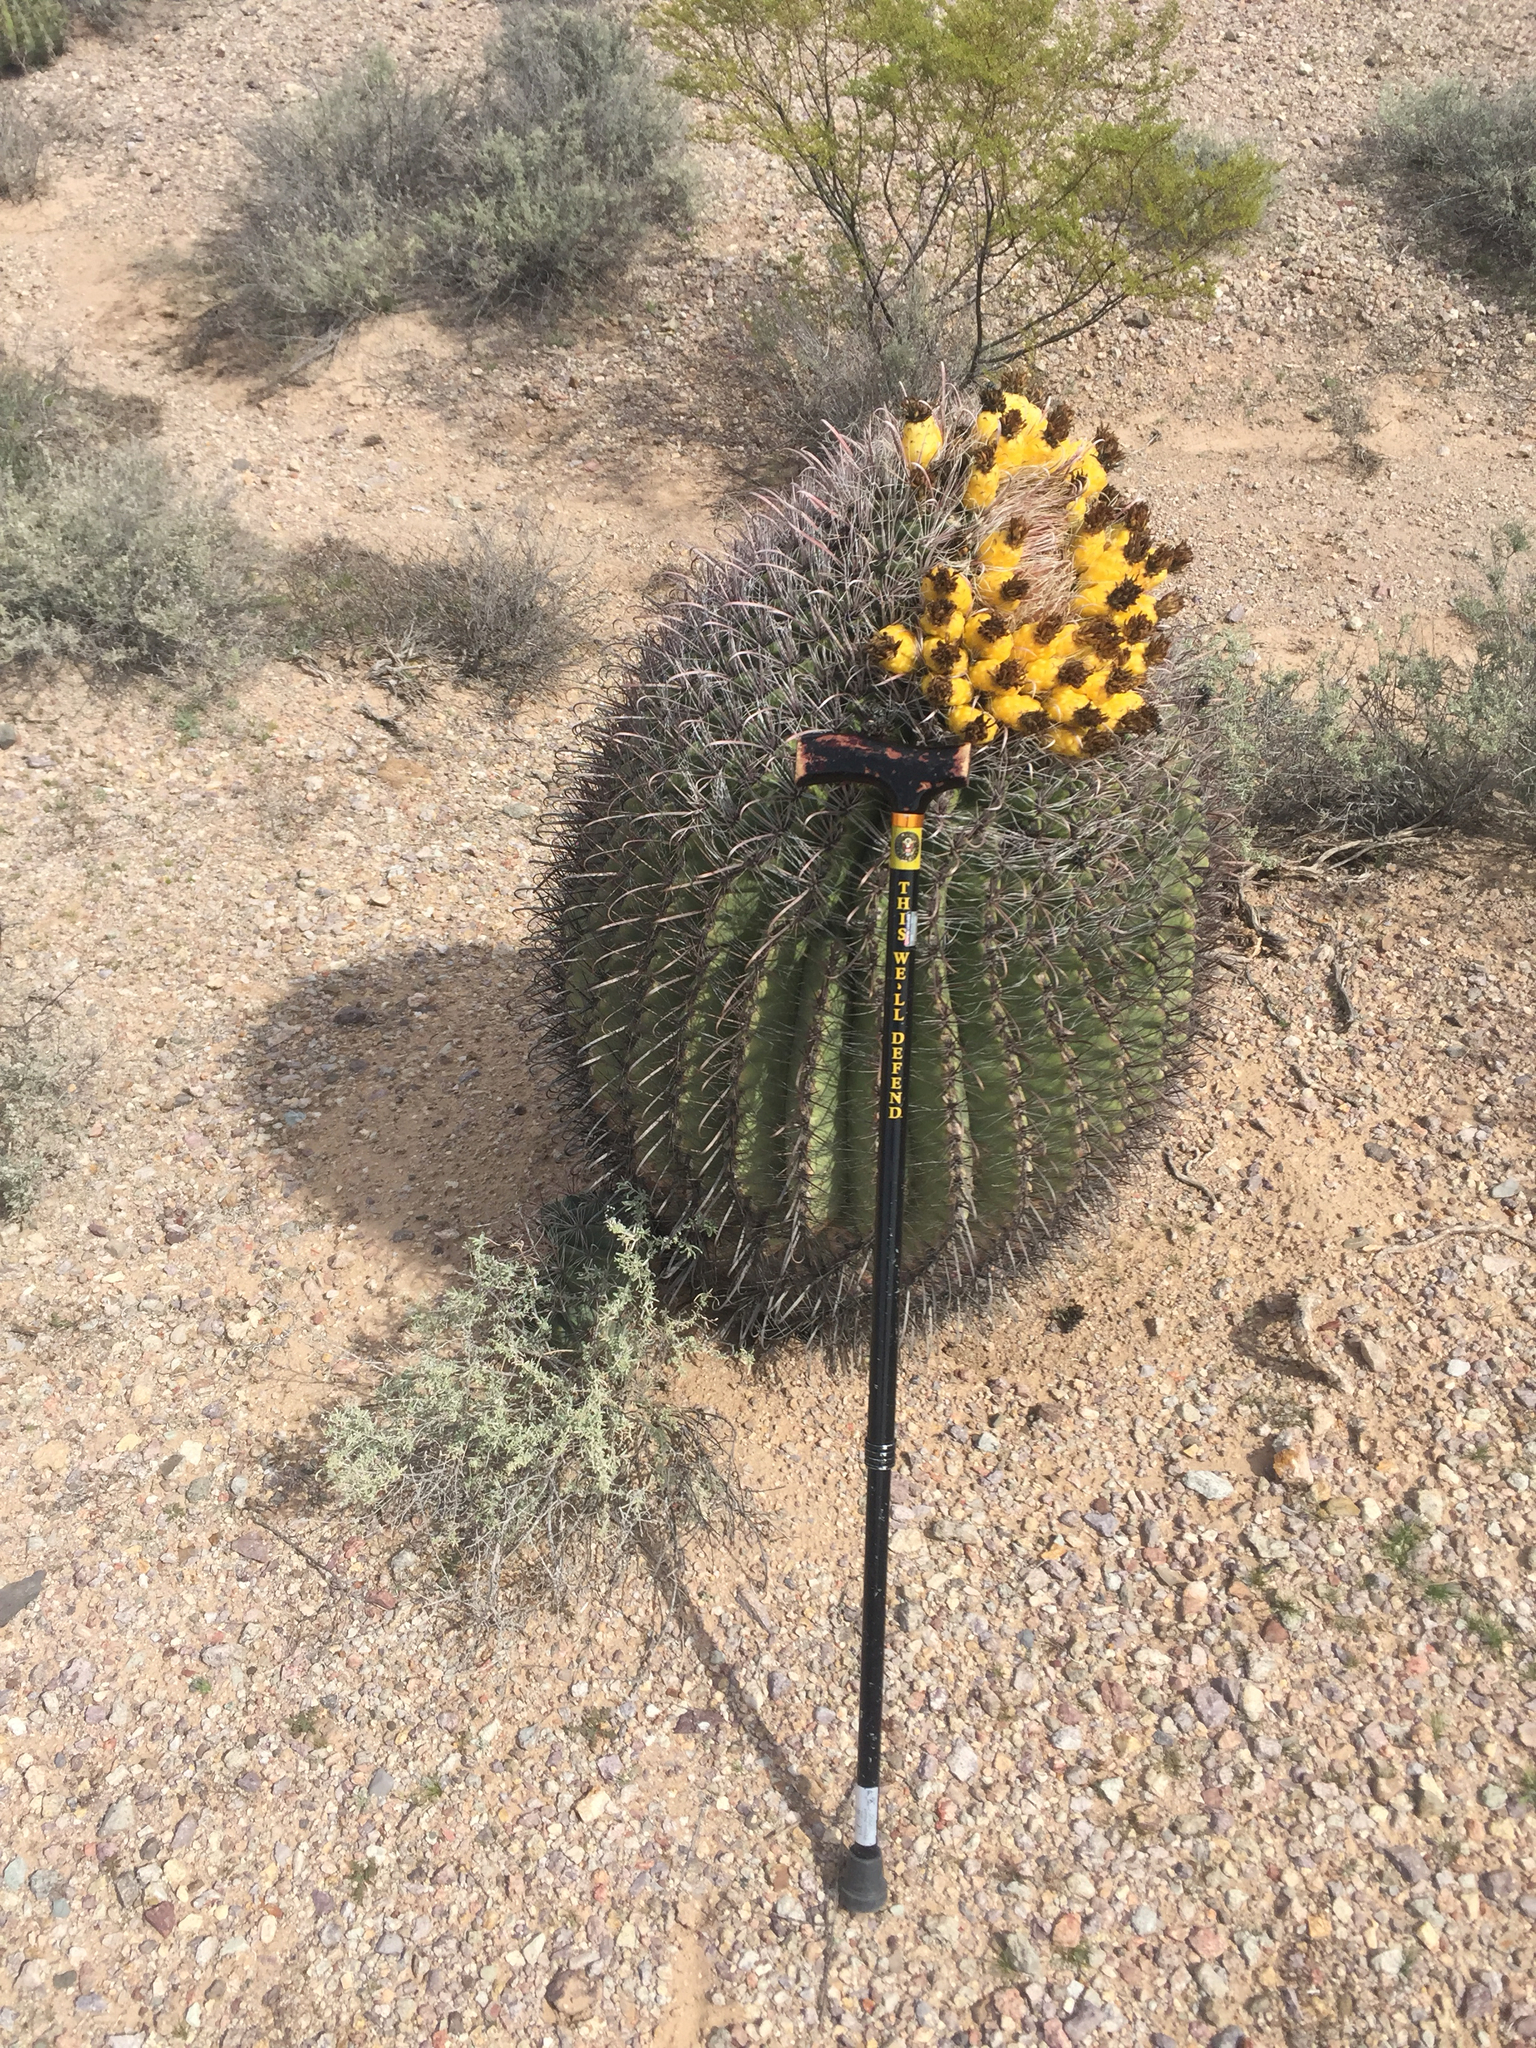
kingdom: Plantae
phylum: Tracheophyta
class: Magnoliopsida
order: Caryophyllales
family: Cactaceae
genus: Ferocactus
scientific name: Ferocactus wislizeni
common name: Candy barrel cactus
